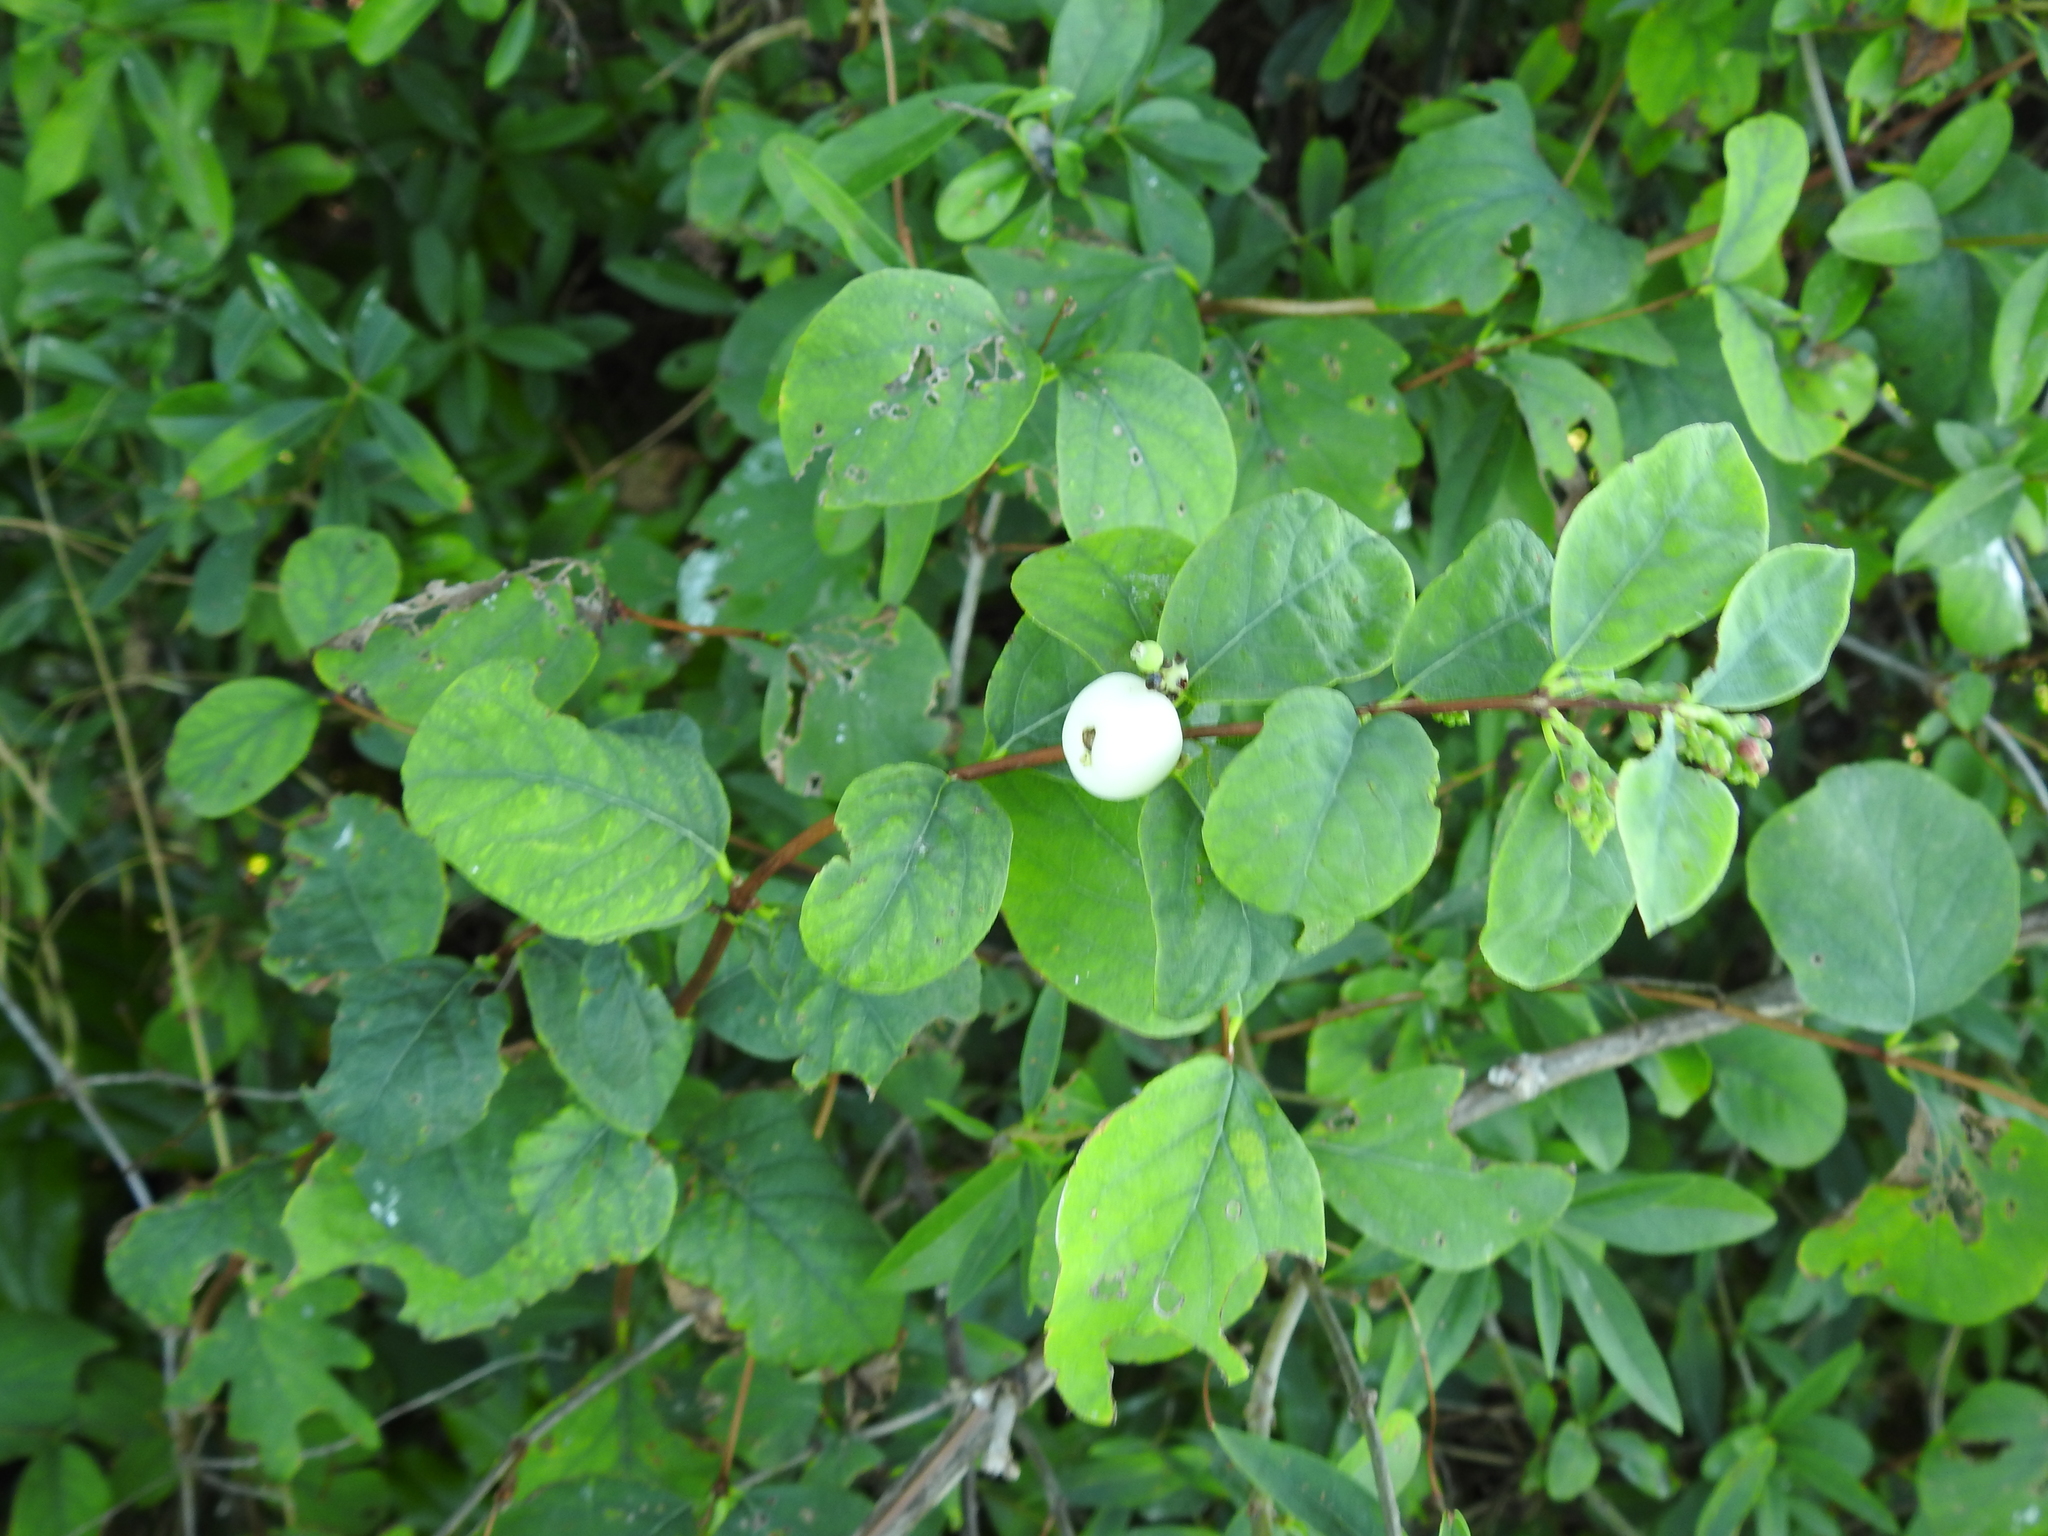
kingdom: Plantae
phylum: Tracheophyta
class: Magnoliopsida
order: Dipsacales
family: Caprifoliaceae
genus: Symphoricarpos
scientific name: Symphoricarpos albus
